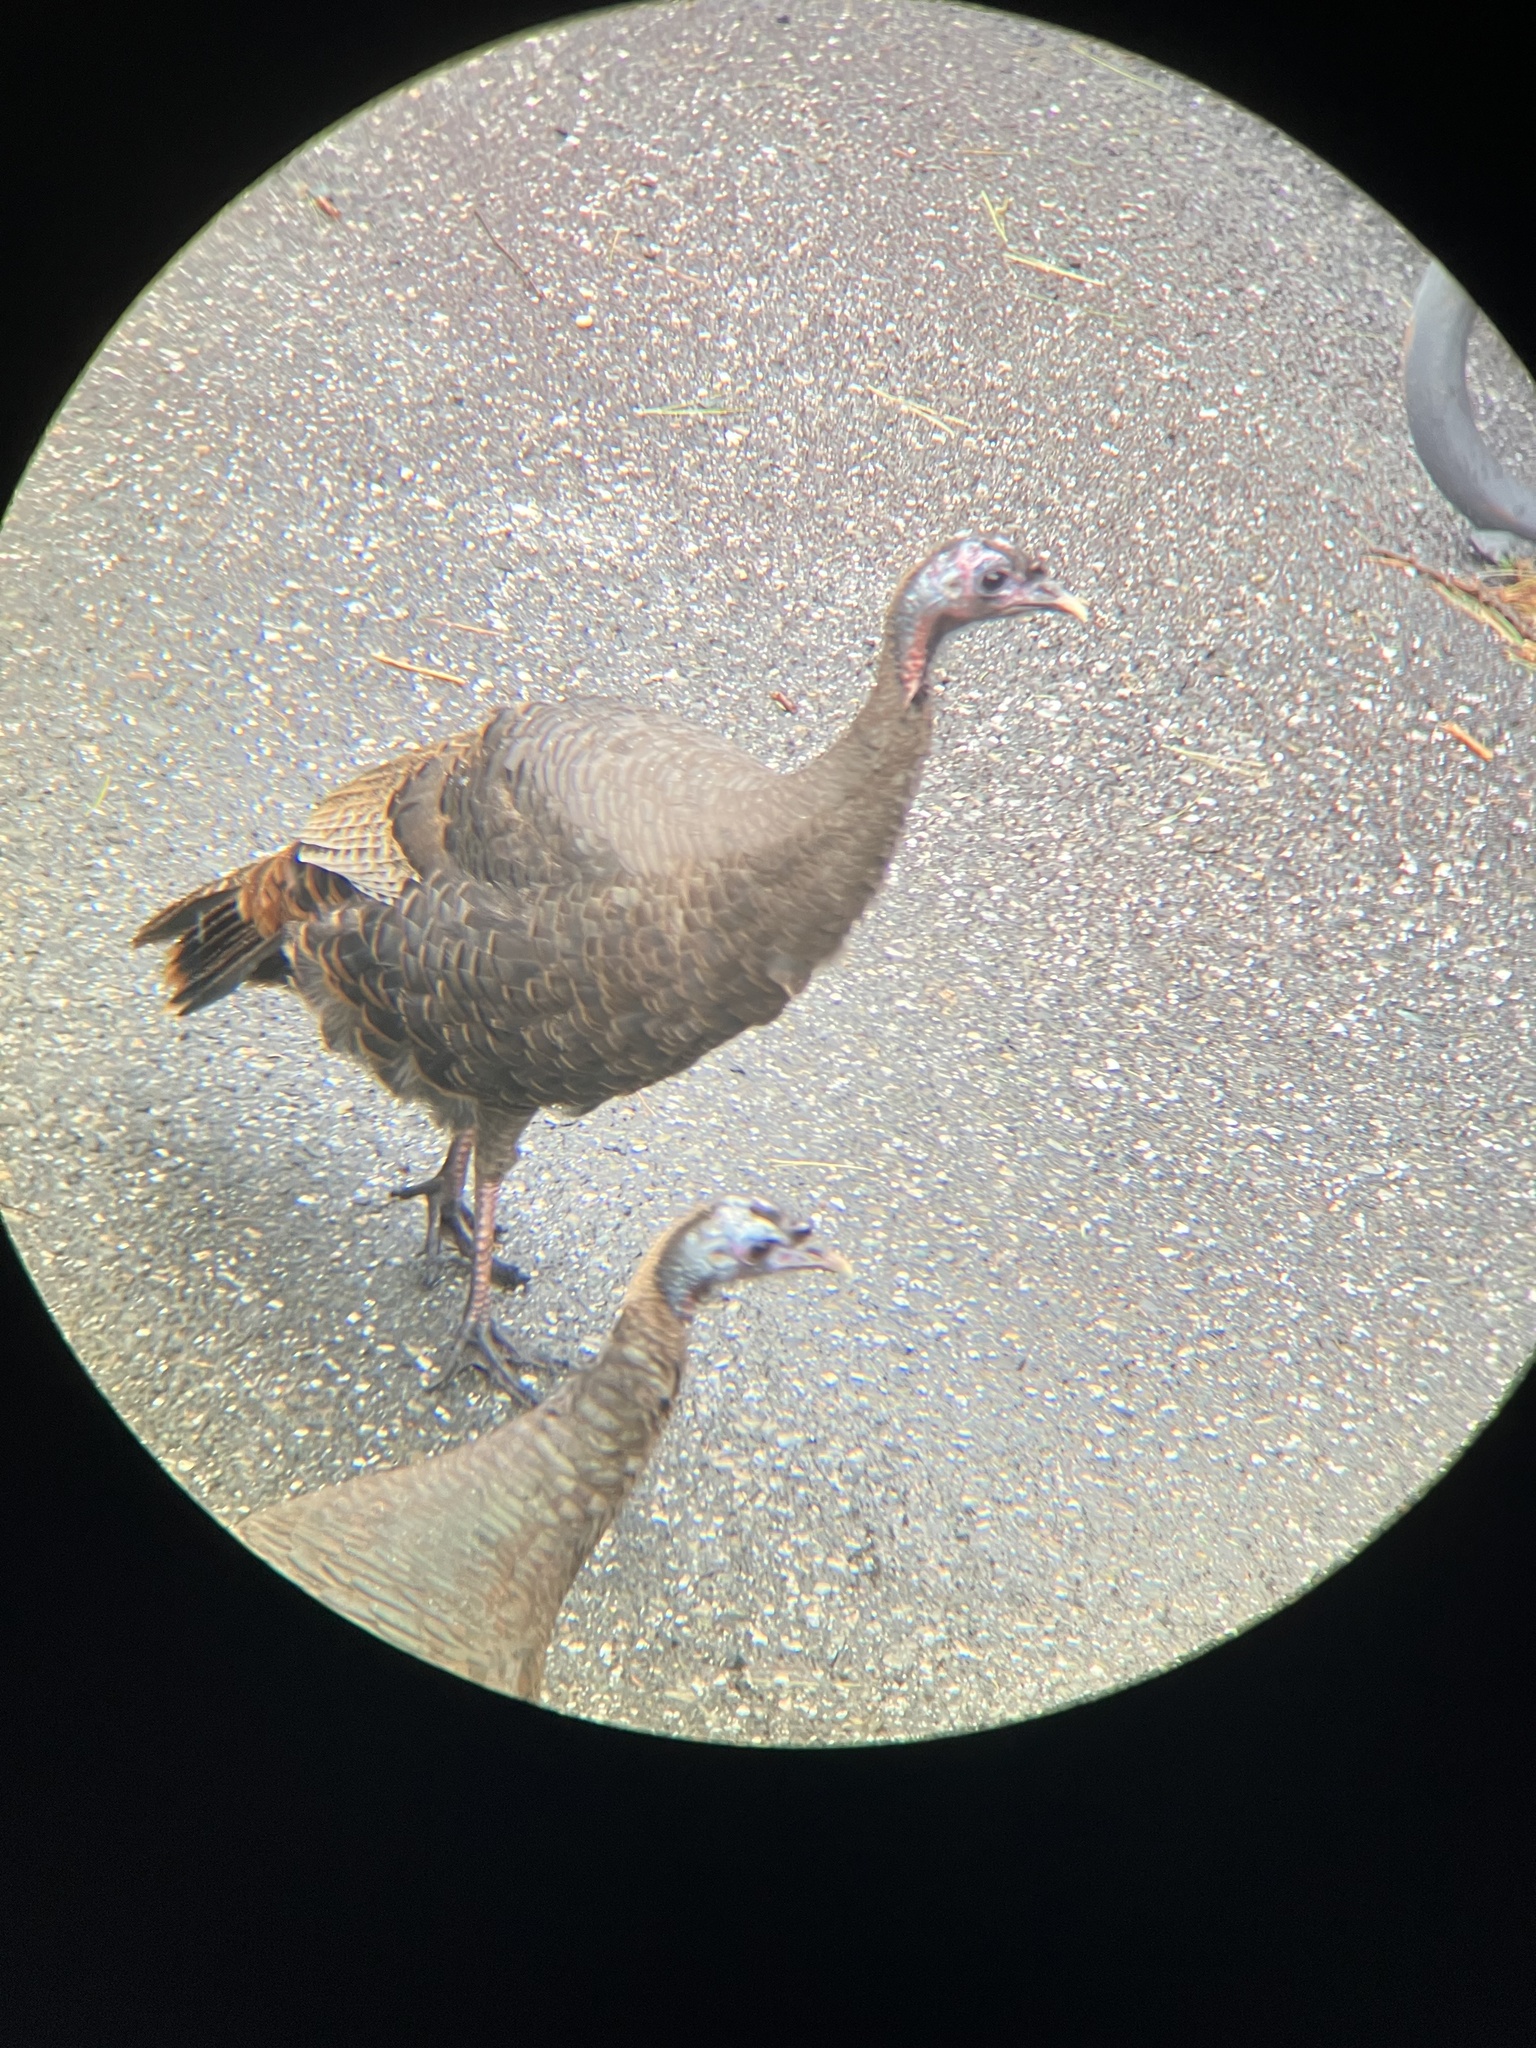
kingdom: Animalia
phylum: Chordata
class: Aves
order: Galliformes
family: Phasianidae
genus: Meleagris
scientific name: Meleagris gallopavo
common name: Wild turkey
